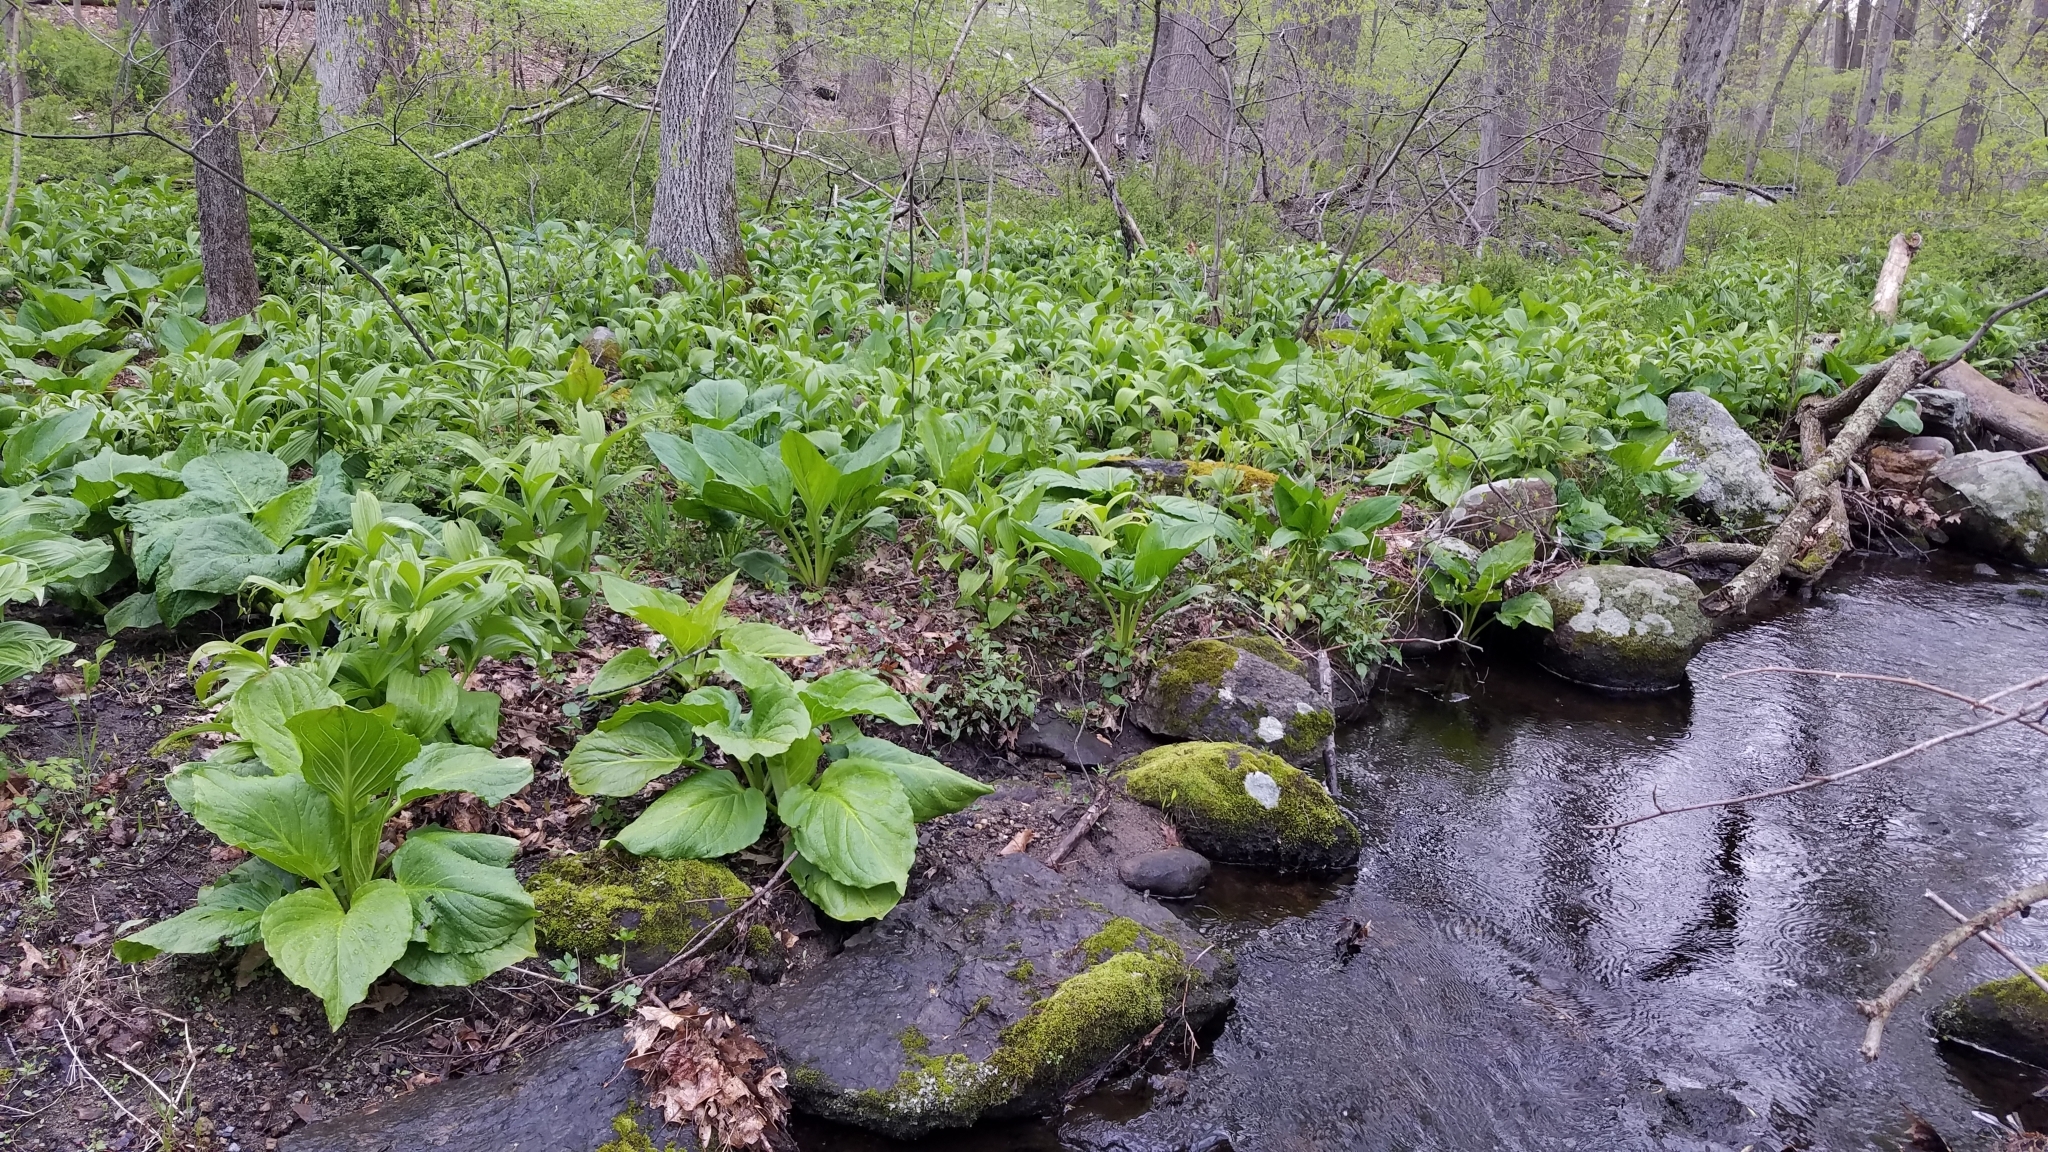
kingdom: Plantae
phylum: Tracheophyta
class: Liliopsida
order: Liliales
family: Melanthiaceae
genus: Veratrum
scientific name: Veratrum viride
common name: American false hellebore
